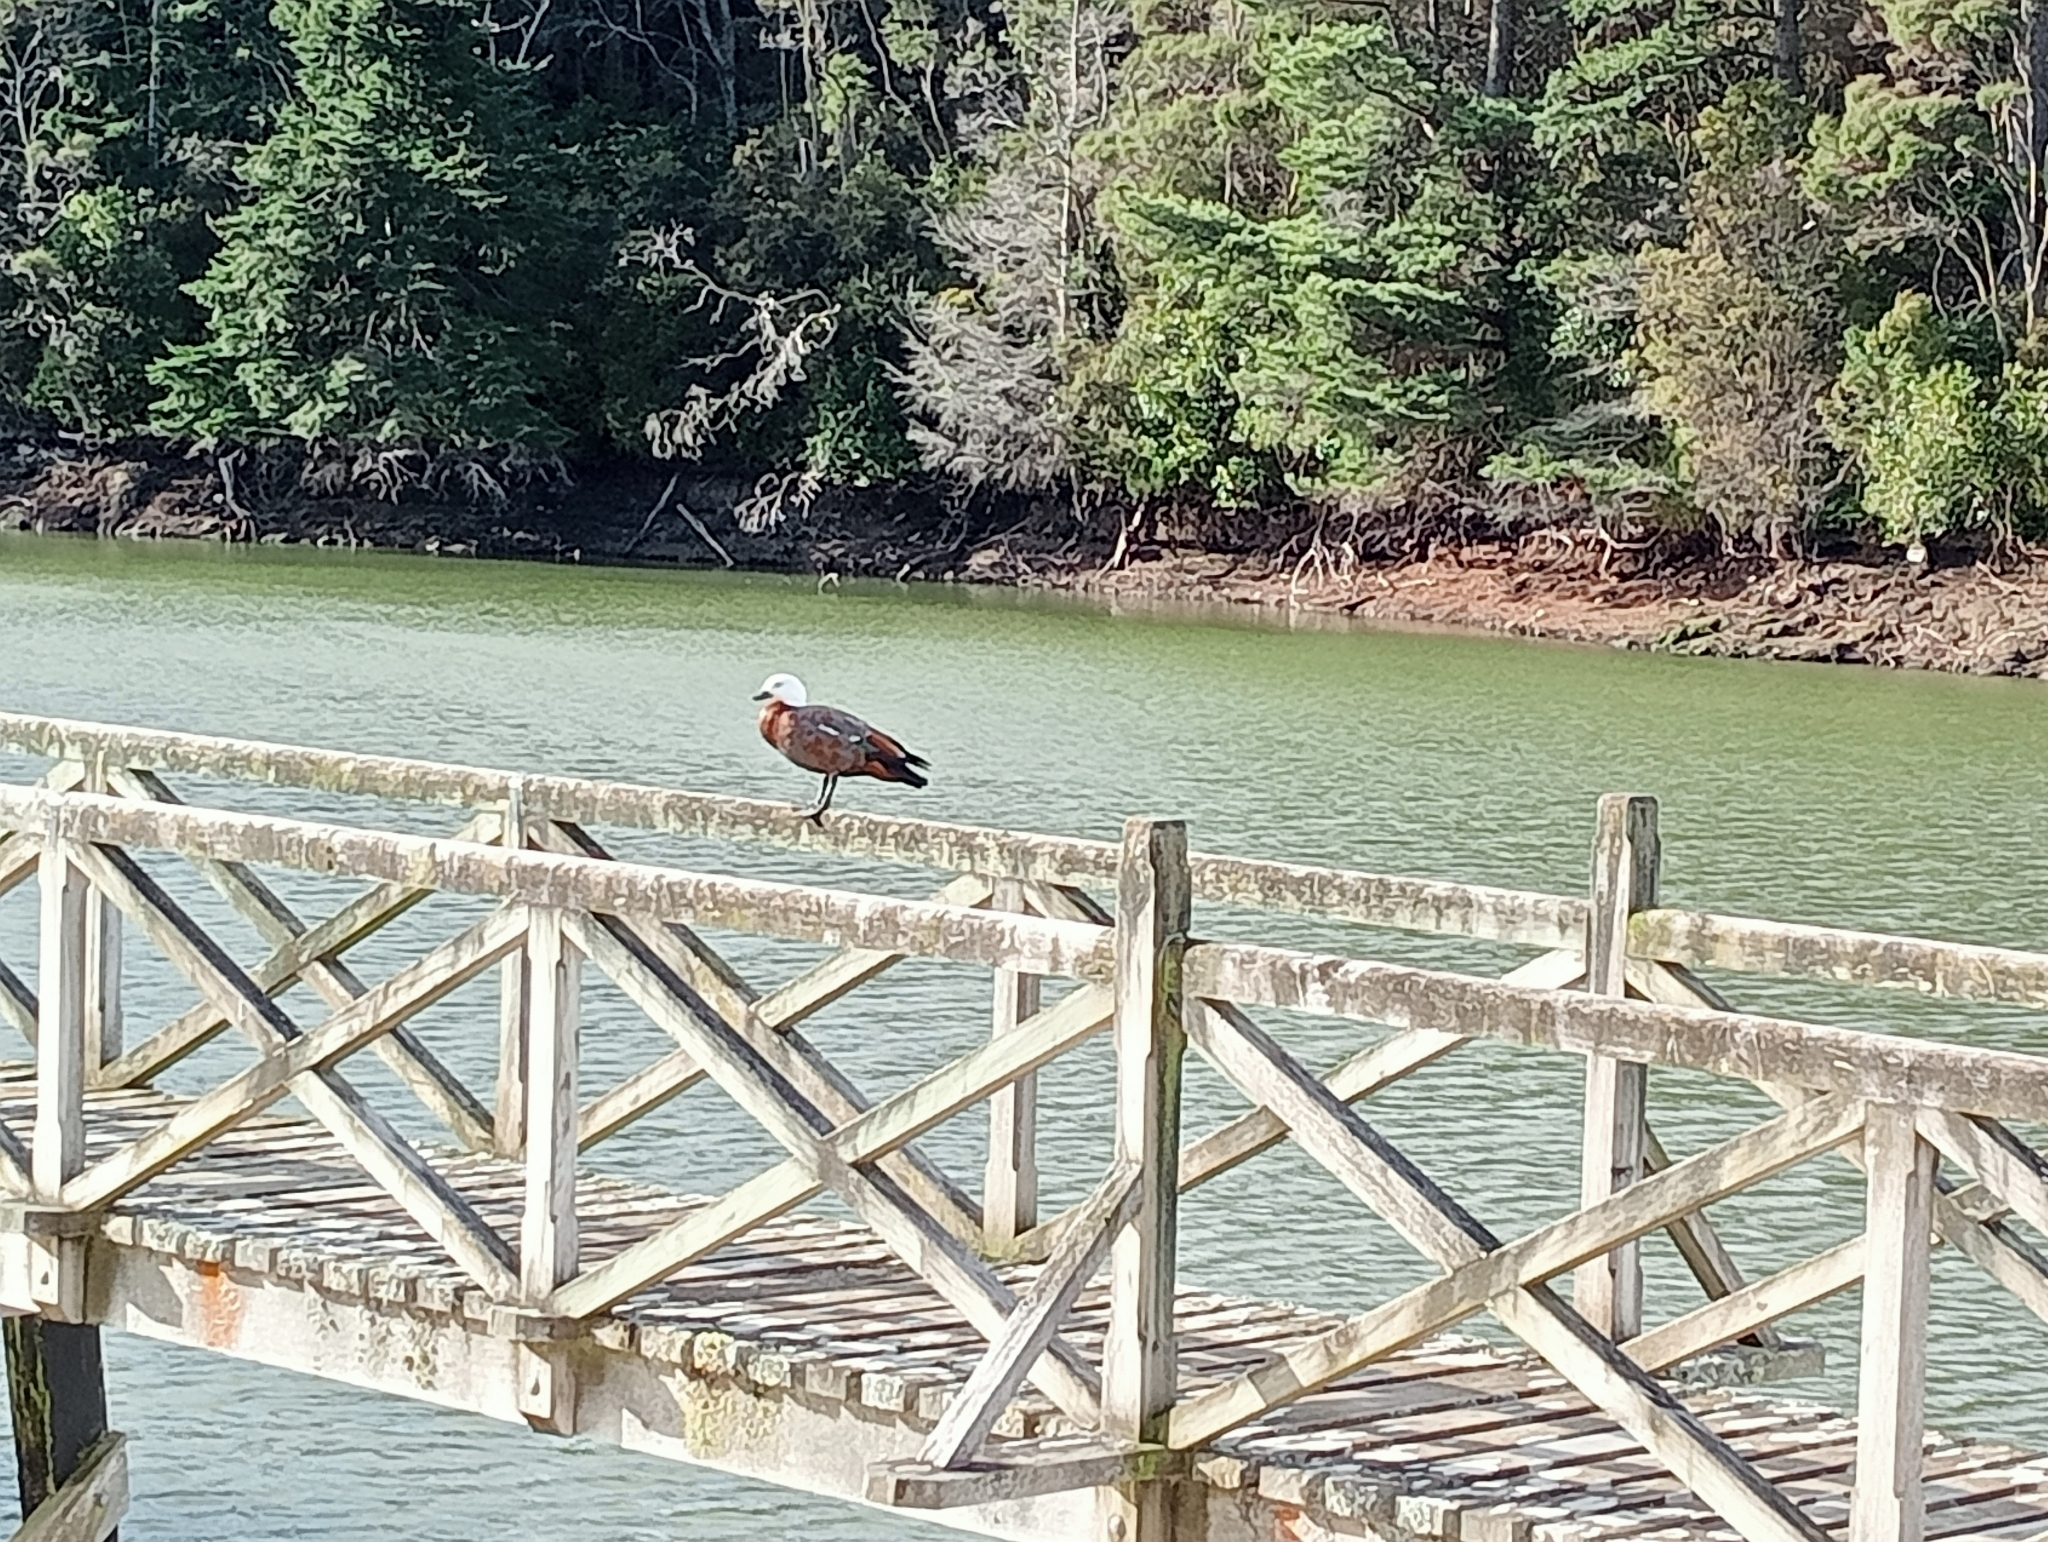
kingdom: Animalia
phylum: Chordata
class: Aves
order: Anseriformes
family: Anatidae
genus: Tadorna
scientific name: Tadorna variegata
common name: Paradise shelduck
